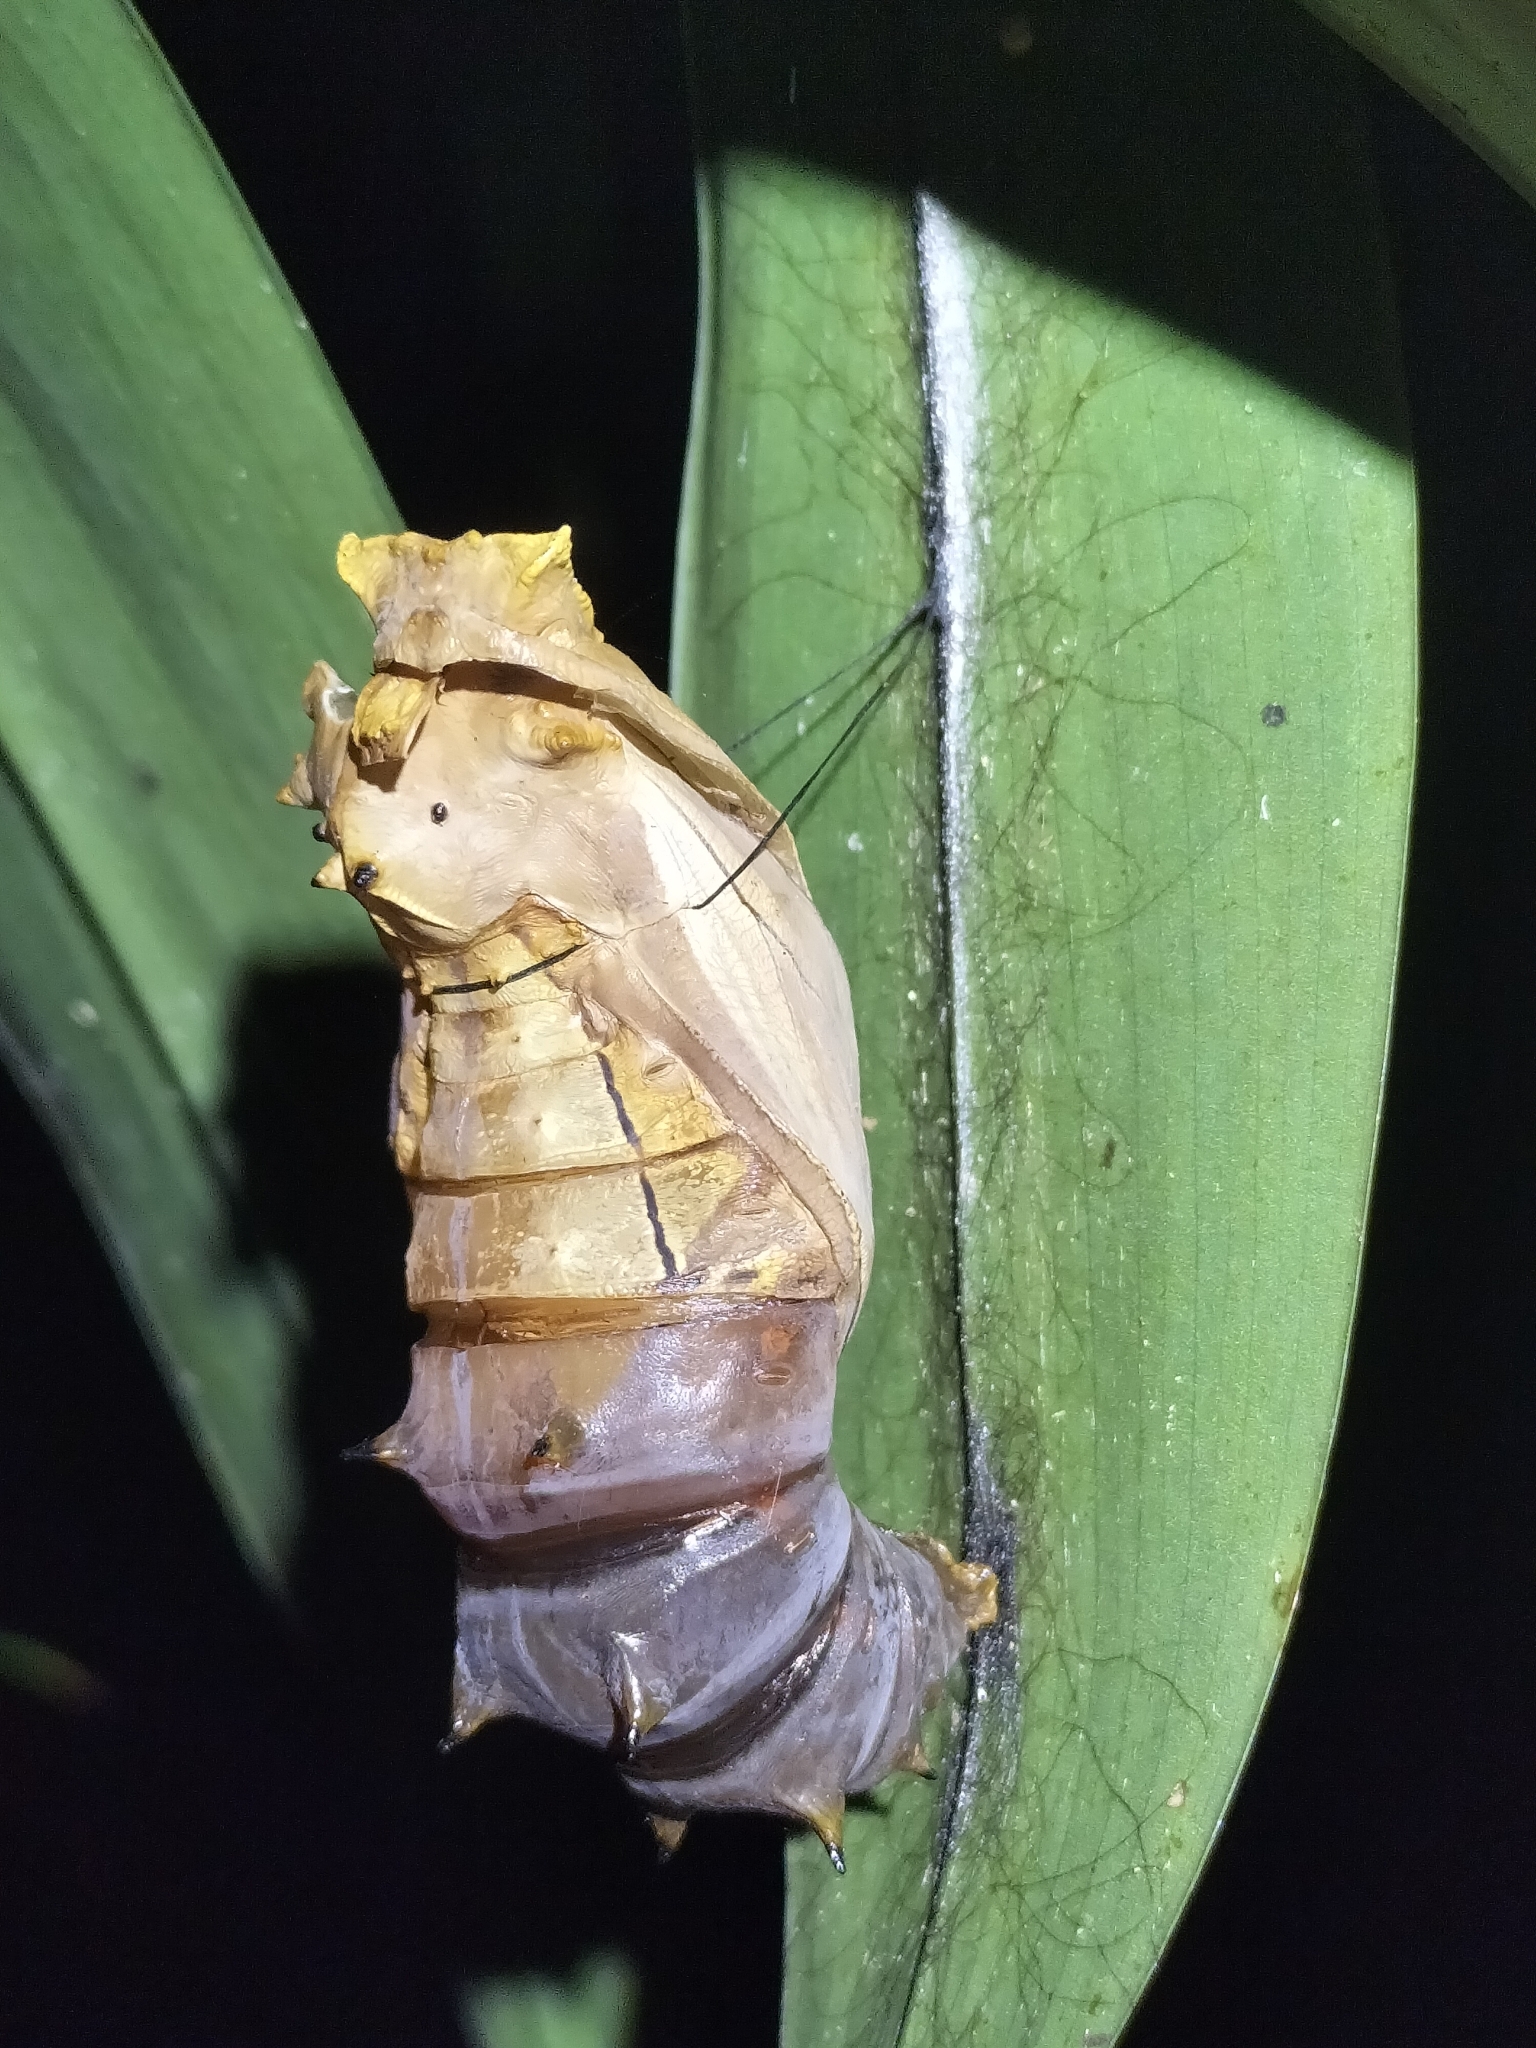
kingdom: Animalia
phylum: Arthropoda
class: Insecta
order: Lepidoptera
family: Papilionidae
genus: Ornithoptera
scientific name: Ornithoptera euphorion
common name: Cairns birdwing
